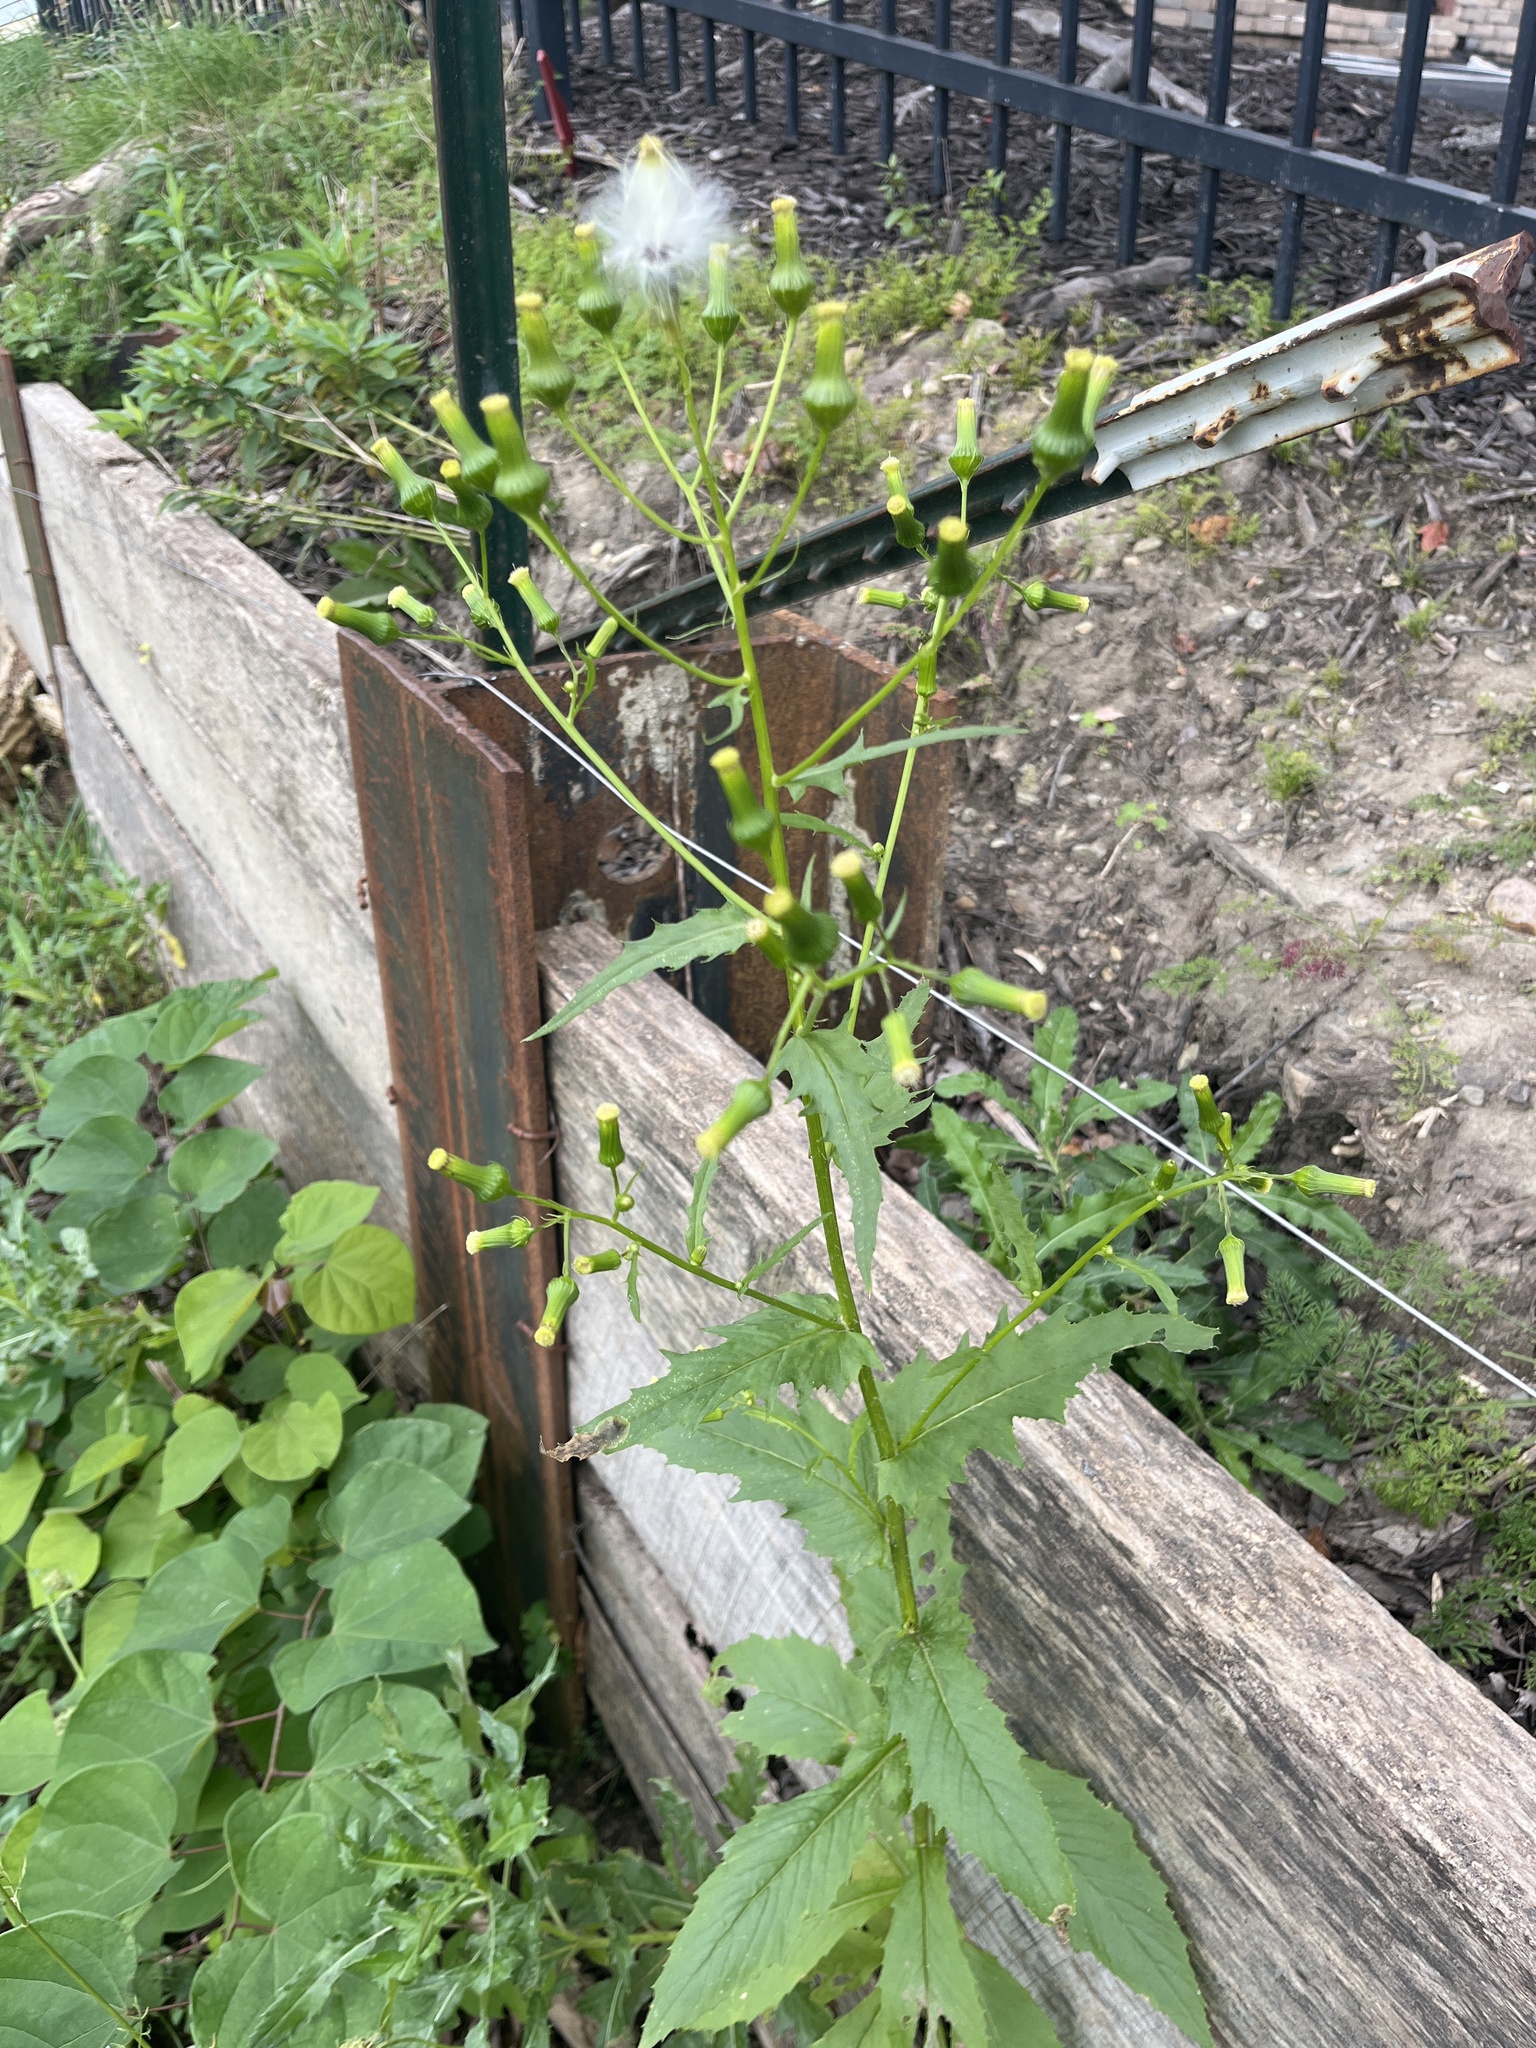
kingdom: Plantae
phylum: Tracheophyta
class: Magnoliopsida
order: Asterales
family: Asteraceae
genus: Erechtites
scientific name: Erechtites hieraciifolius
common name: American burnweed
